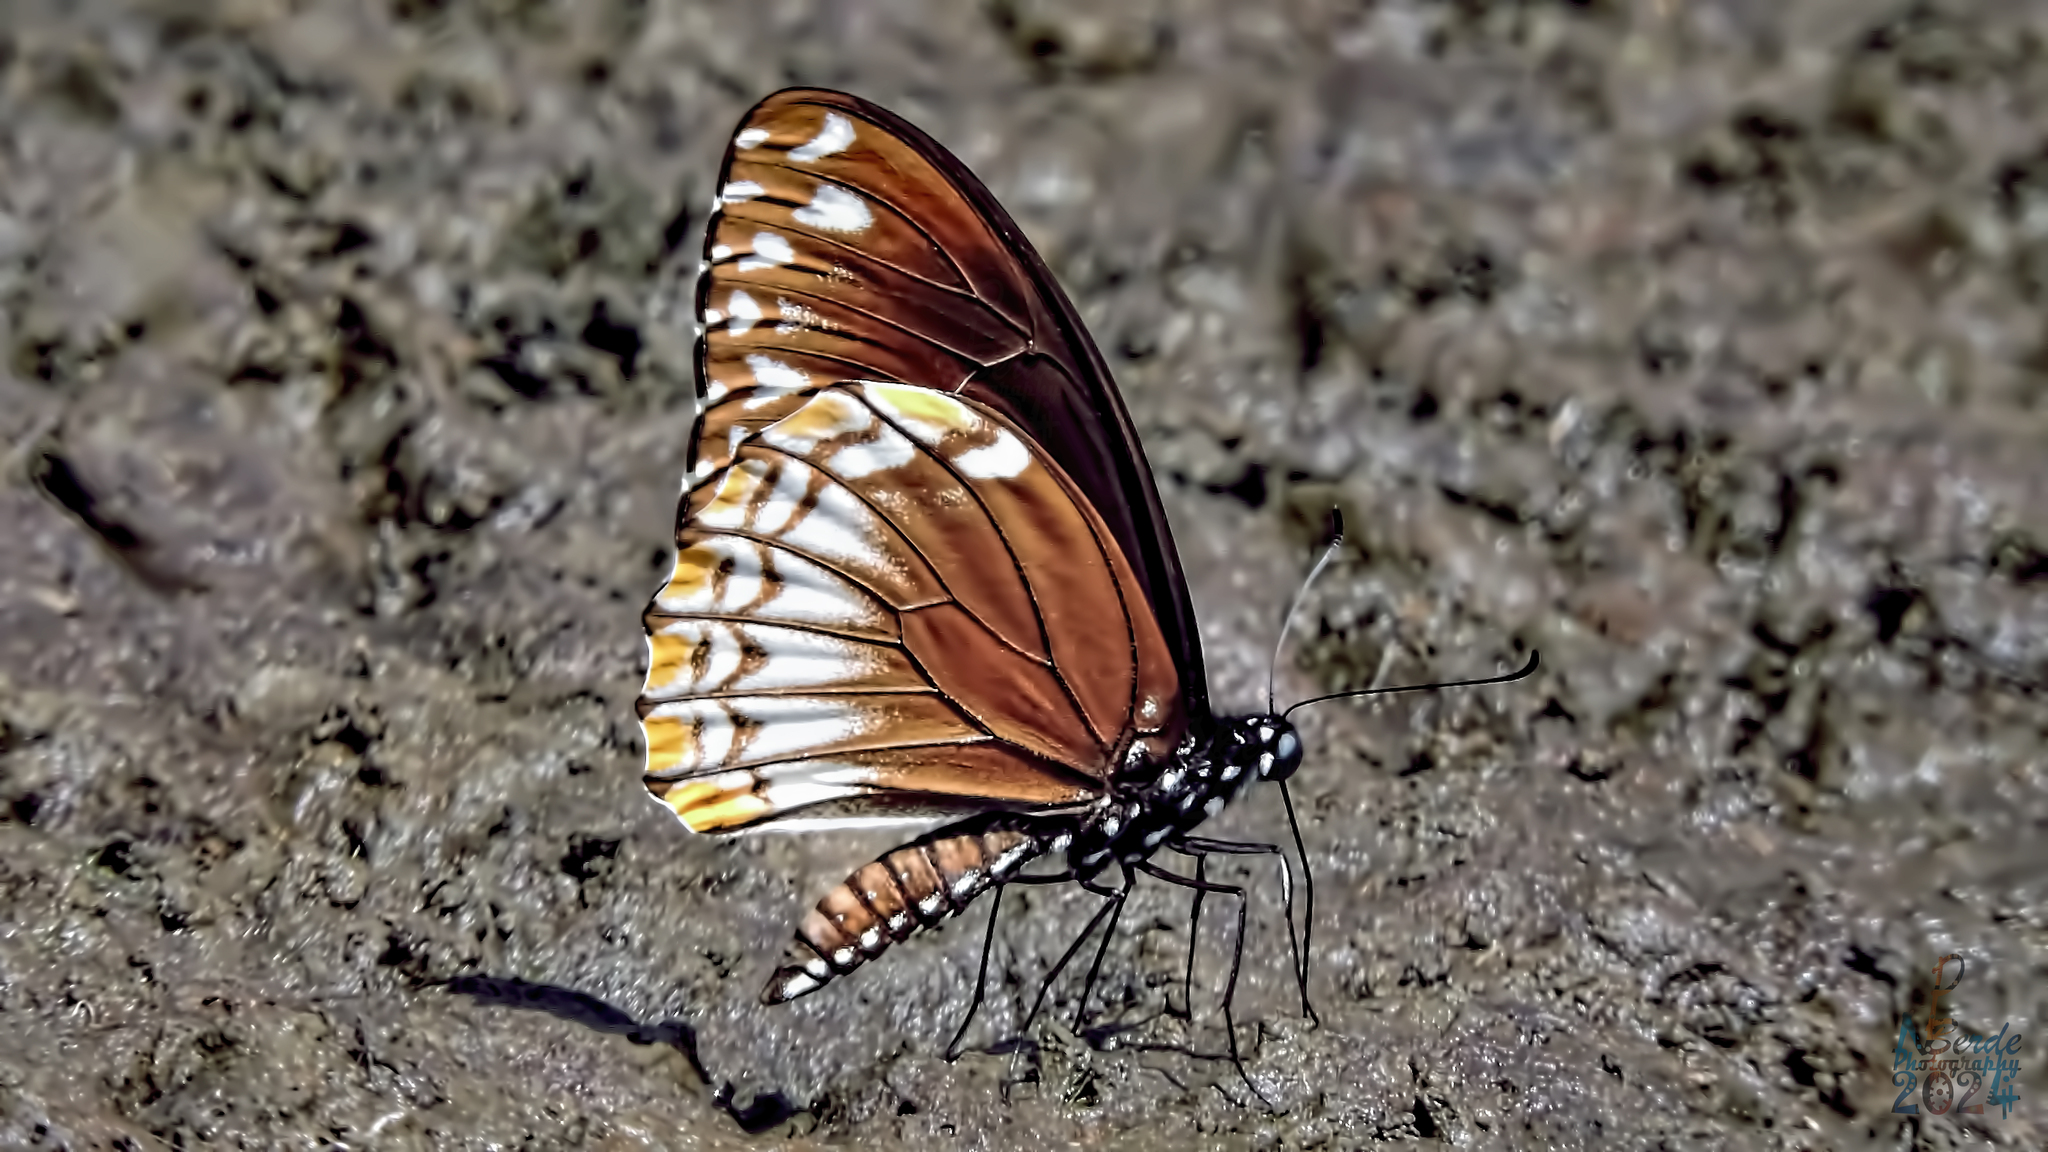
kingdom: Animalia
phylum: Arthropoda
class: Insecta
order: Lepidoptera
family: Papilionidae
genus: Chilasa
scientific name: Chilasa clytia
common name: Common mime
